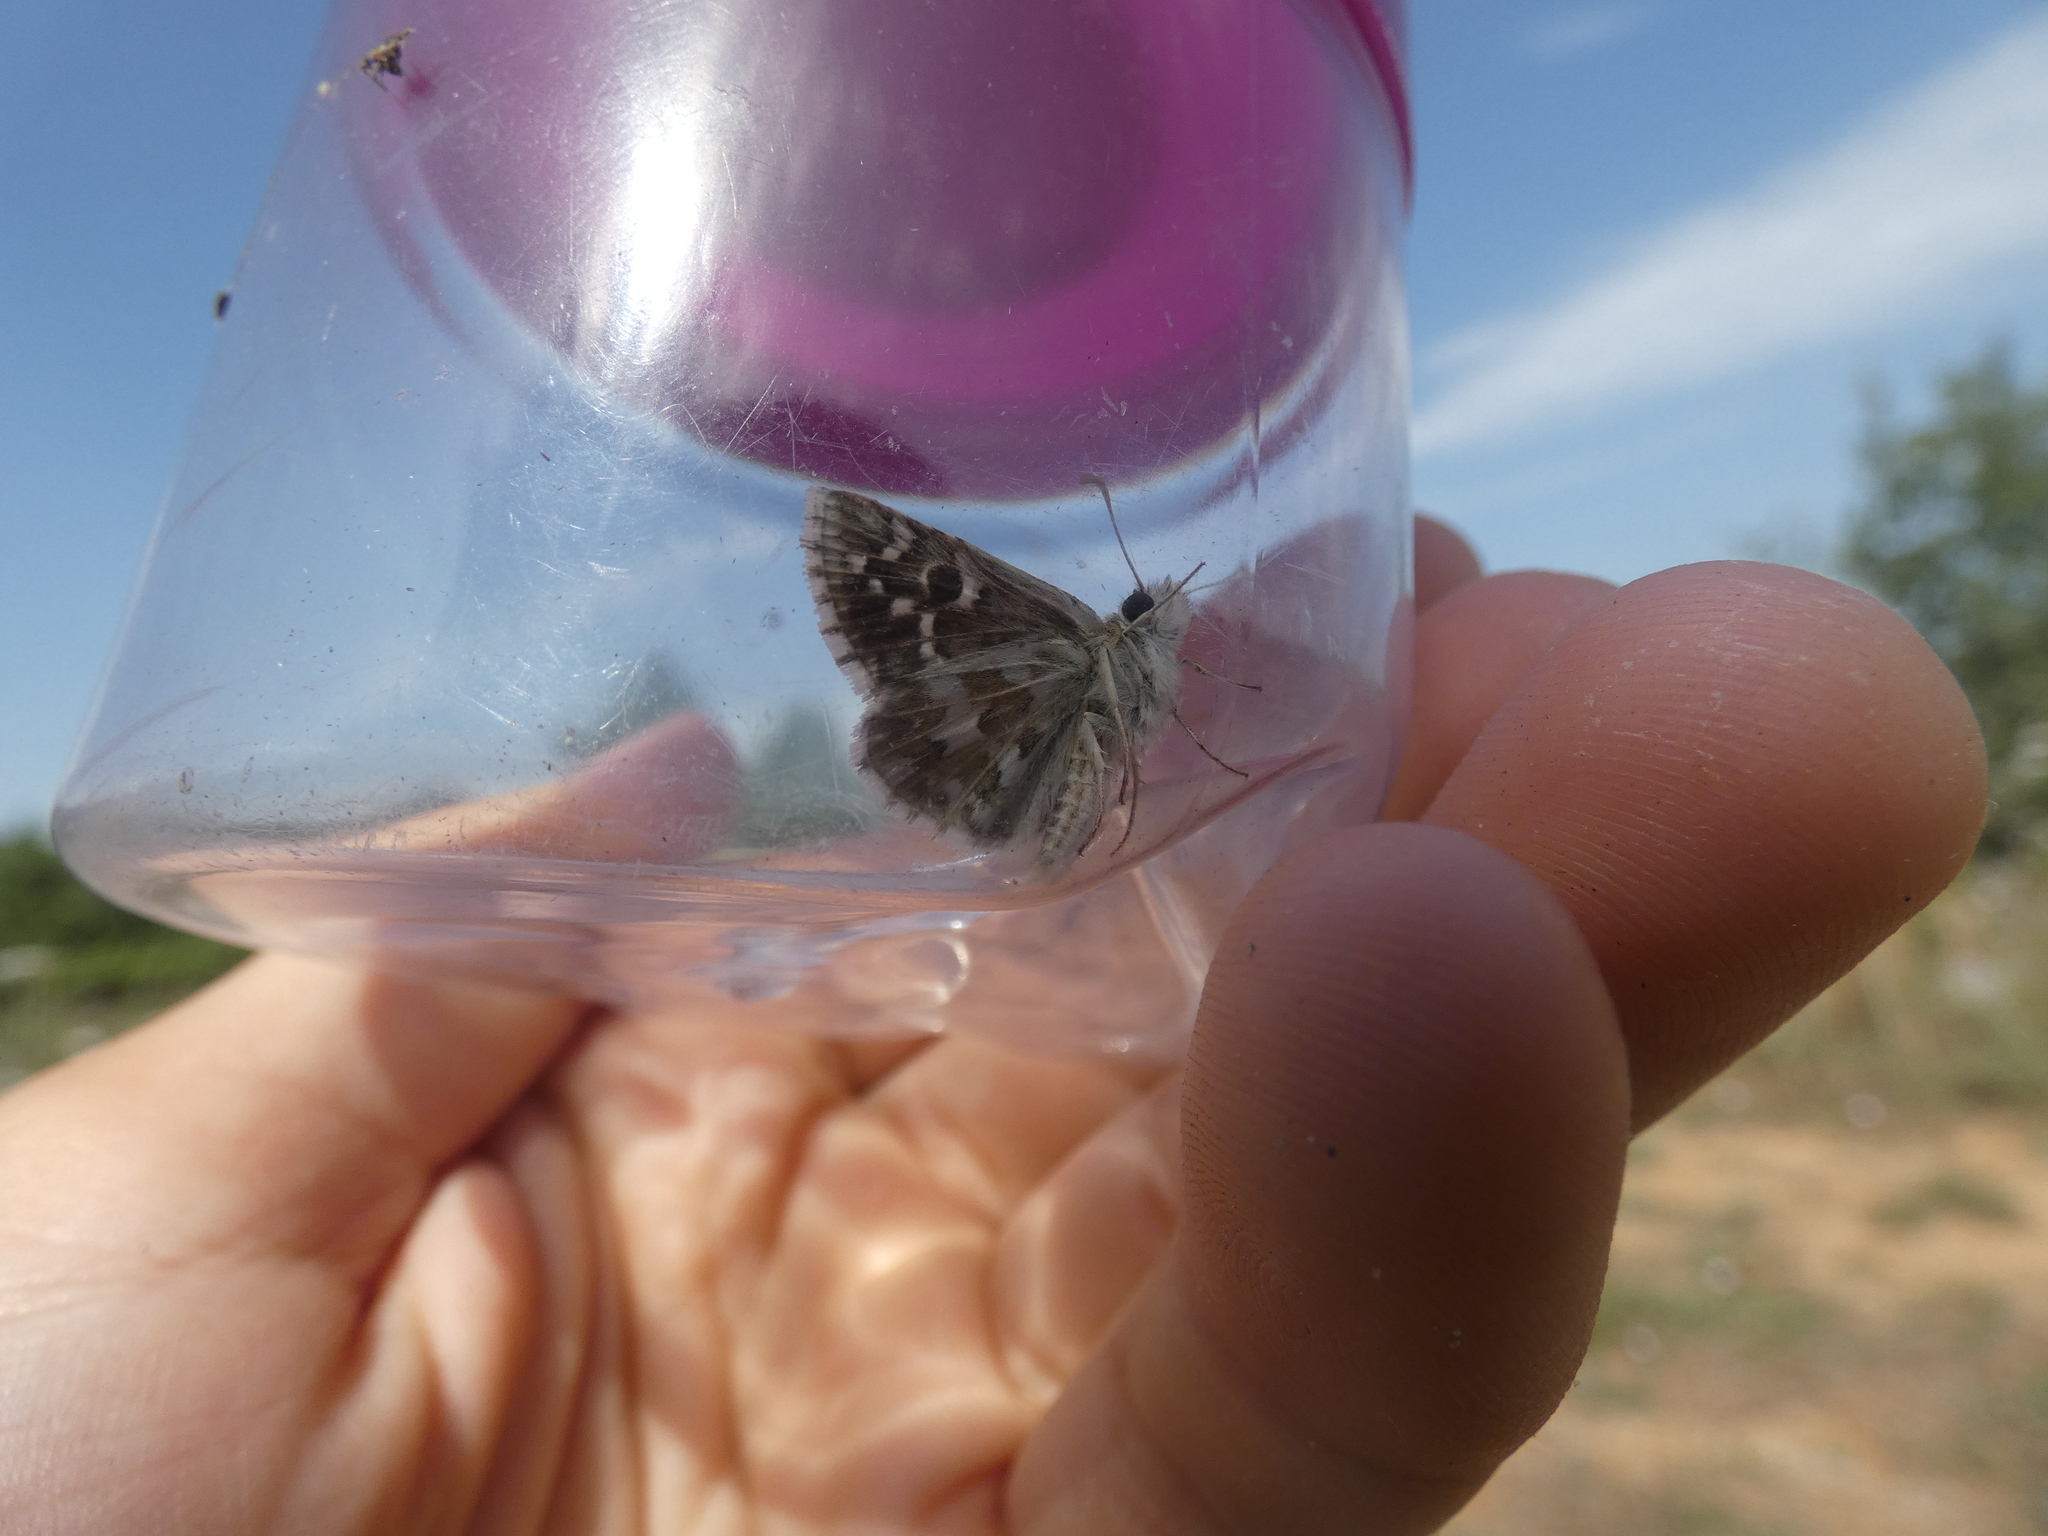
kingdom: Animalia
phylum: Arthropoda
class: Insecta
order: Lepidoptera
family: Hesperiidae
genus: Pyrgus
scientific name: Pyrgus onopordi
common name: Rosy grizzled skipper
